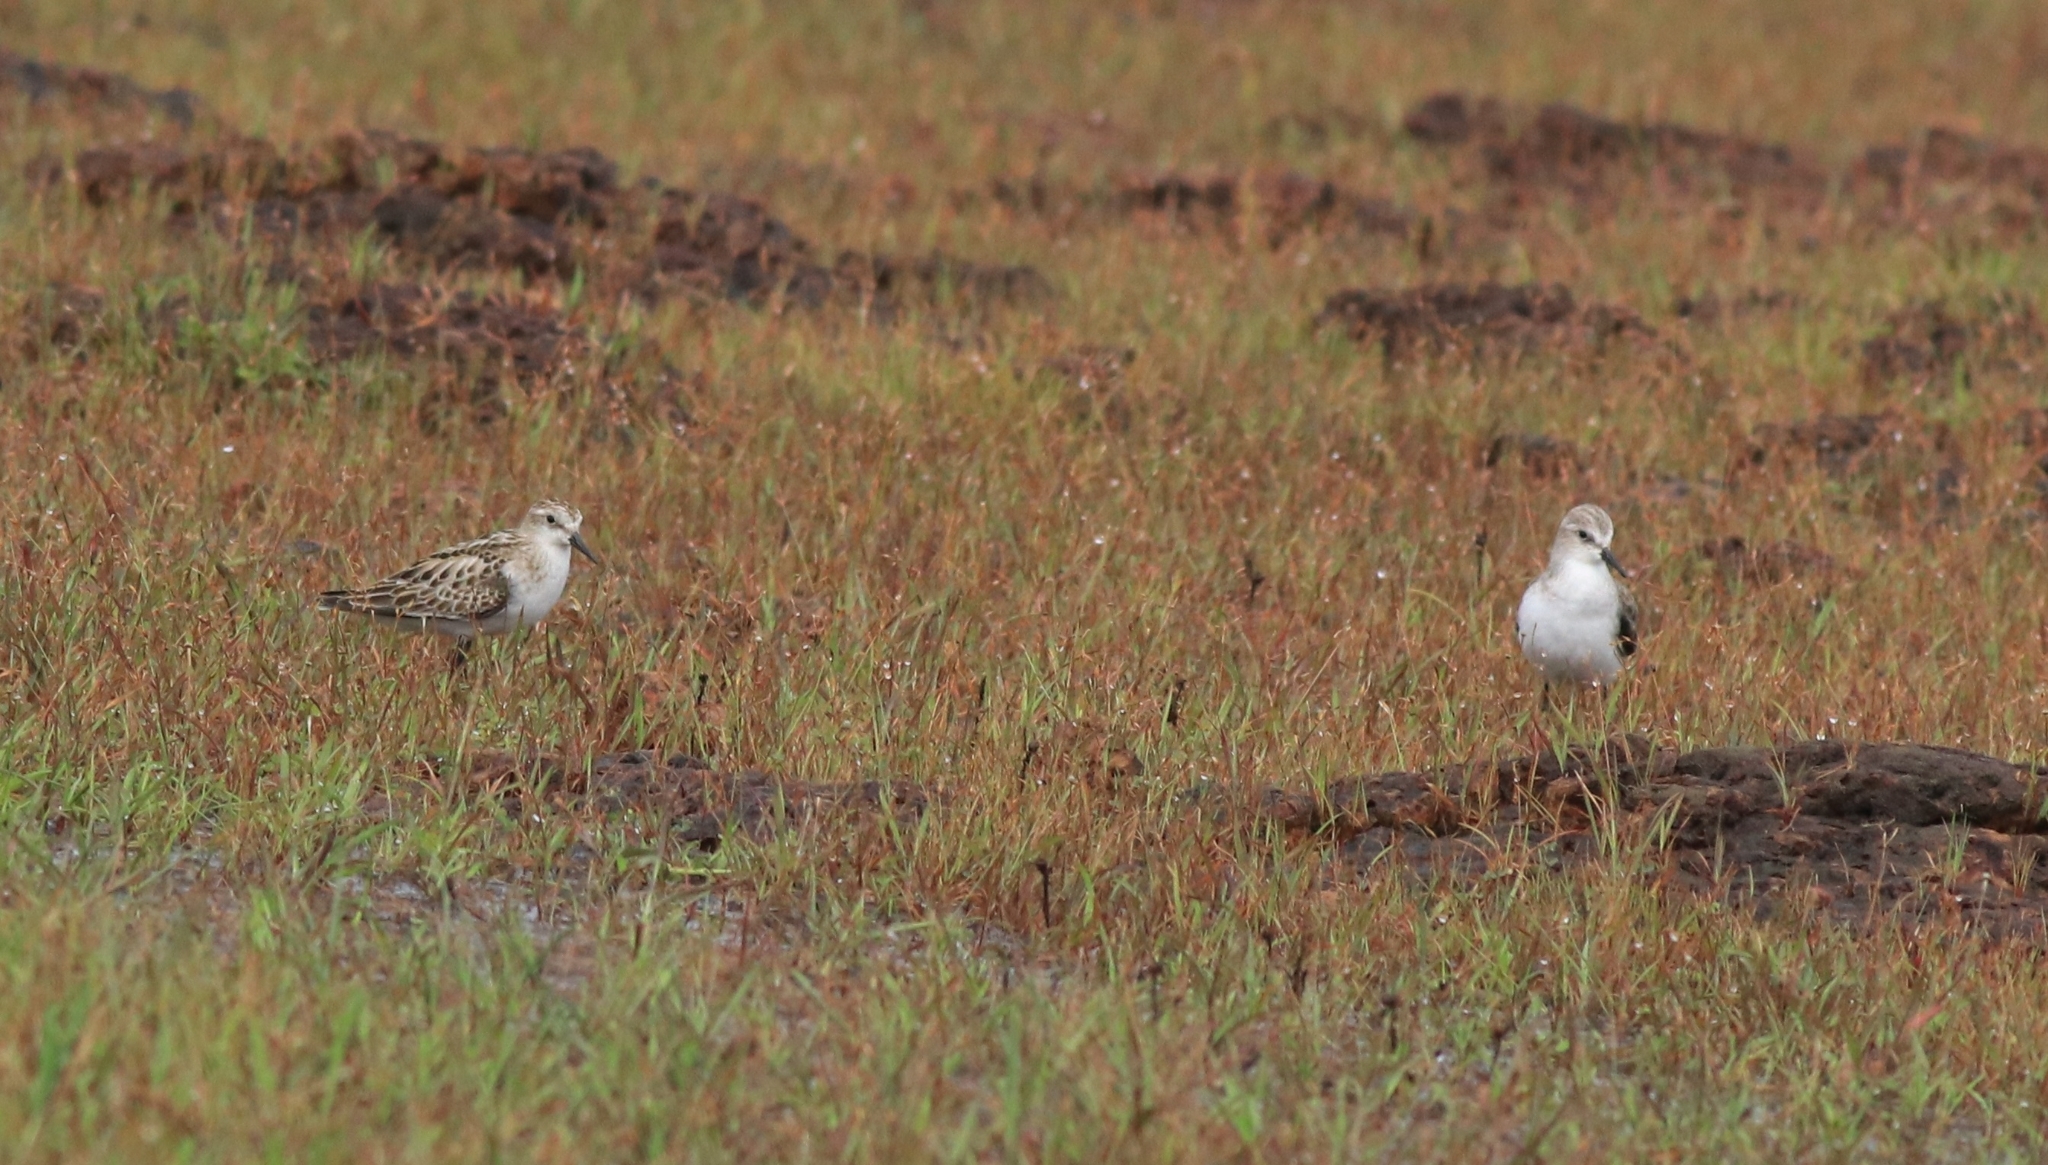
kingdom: Animalia
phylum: Chordata
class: Aves
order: Charadriiformes
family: Scolopacidae
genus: Calidris
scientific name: Calidris minuta
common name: Little stint
